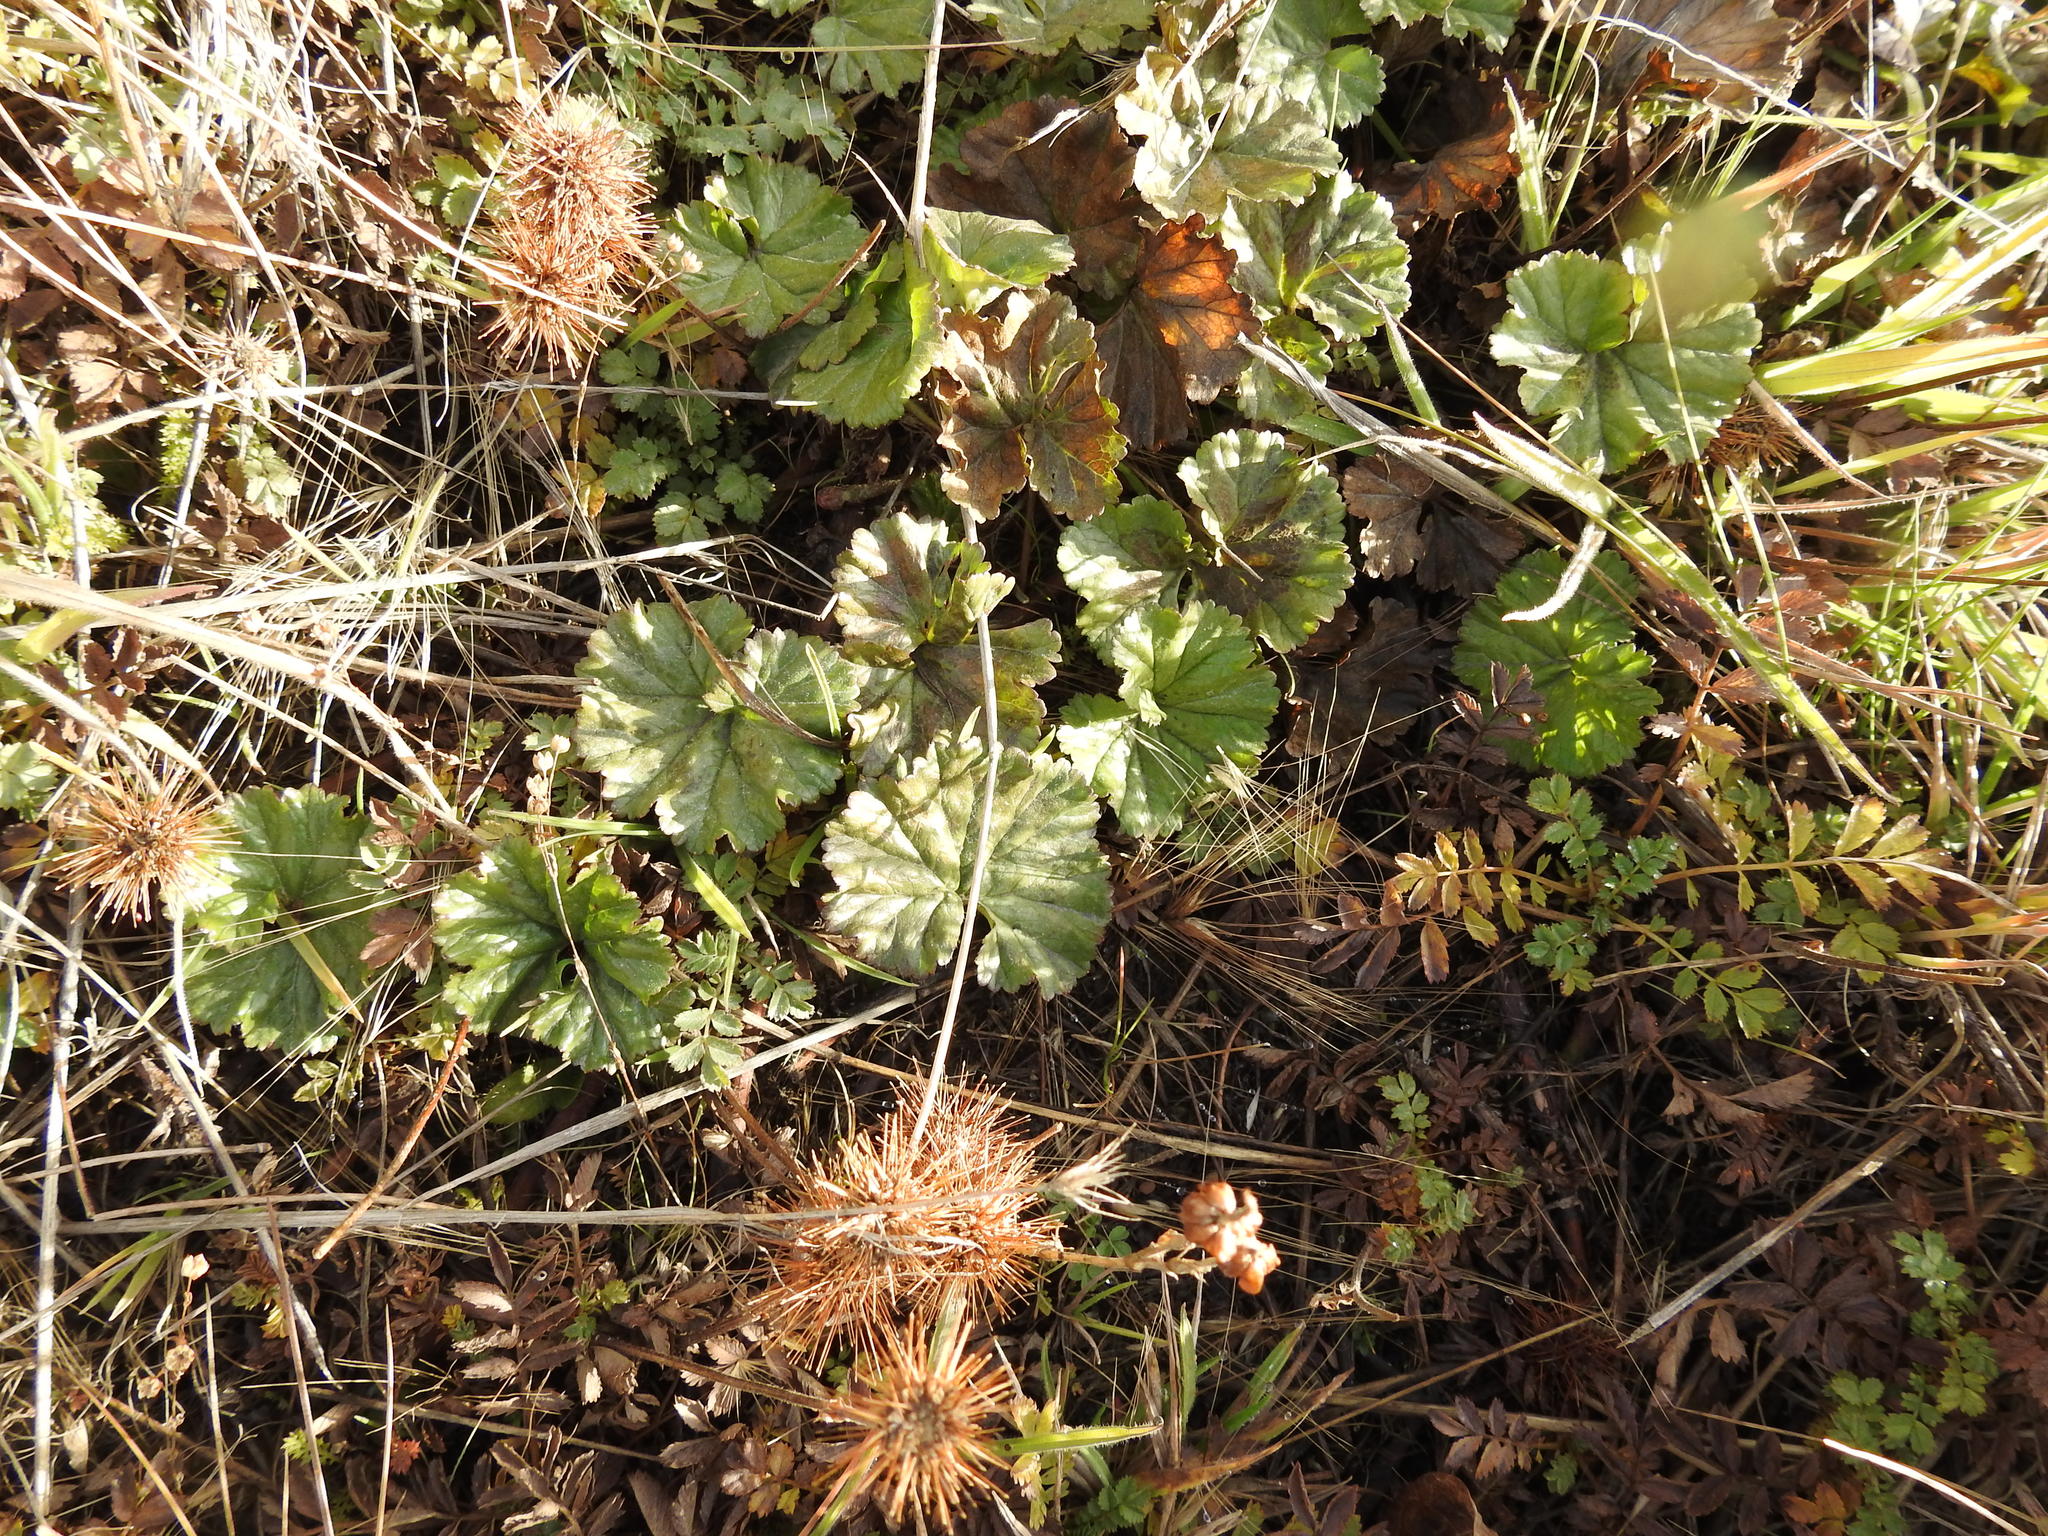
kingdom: Plantae
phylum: Tracheophyta
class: Magnoliopsida
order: Gunnerales
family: Gunneraceae
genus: Gunnera
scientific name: Gunnera magellanica
